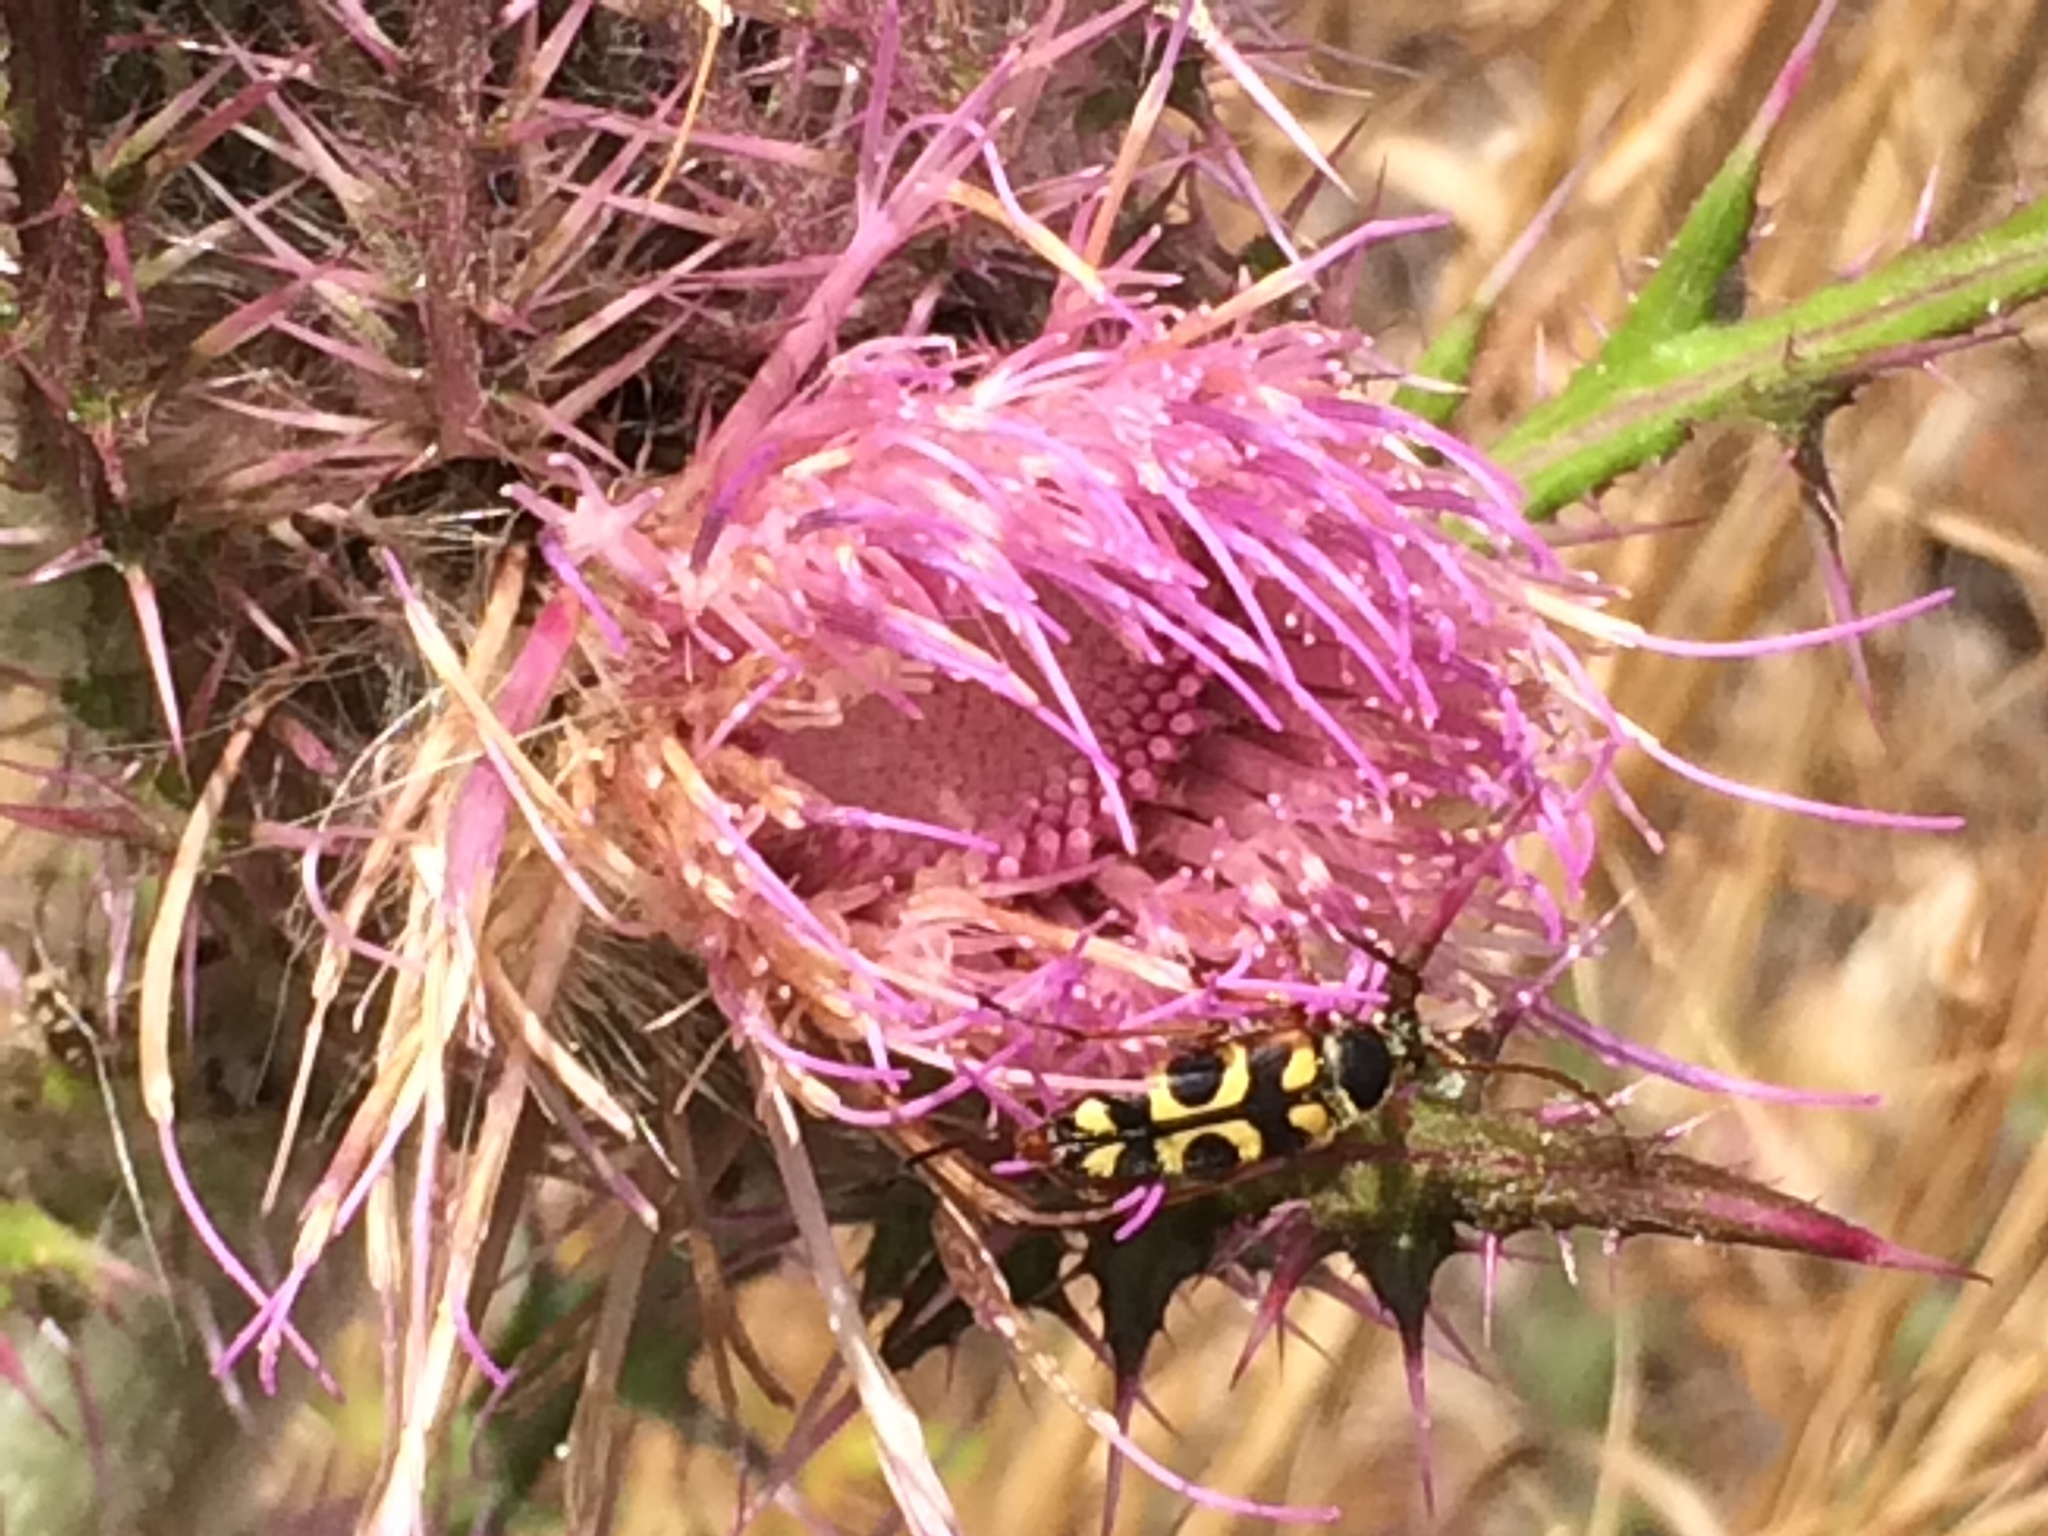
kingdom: Animalia
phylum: Arthropoda
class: Insecta
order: Coleoptera
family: Cerambycidae
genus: Typocerus
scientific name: Typocerus sinuatus
